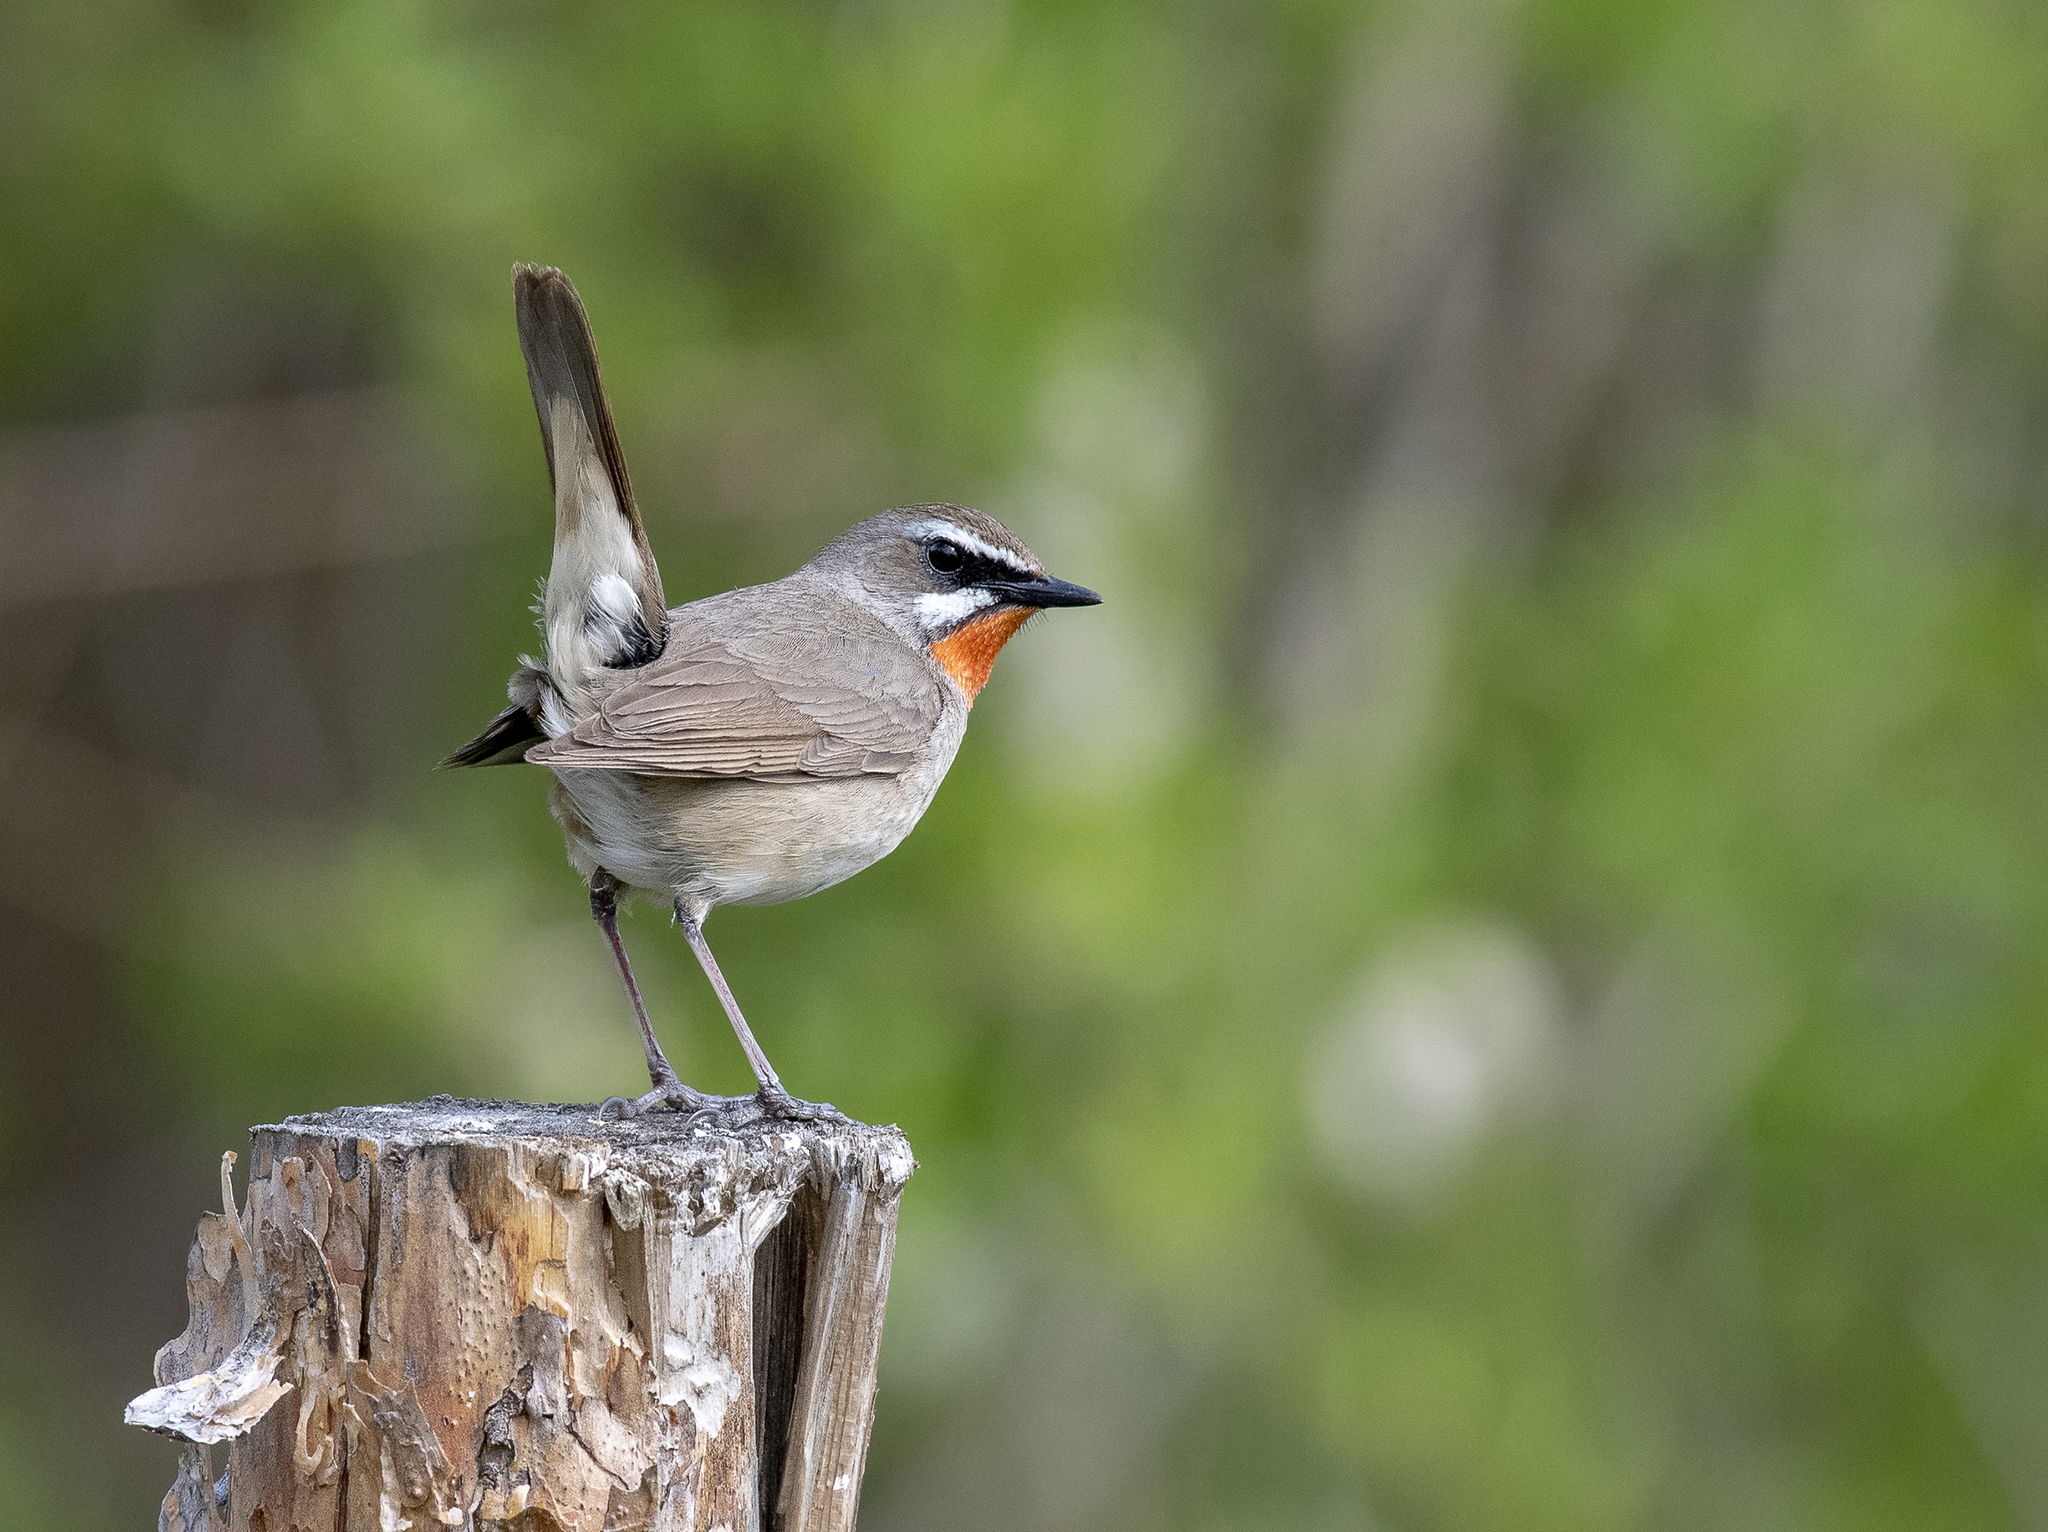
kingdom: Animalia
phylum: Chordata
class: Aves
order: Passeriformes
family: Muscicapidae
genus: Luscinia
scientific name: Luscinia calliope
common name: Siberian rubythroat
